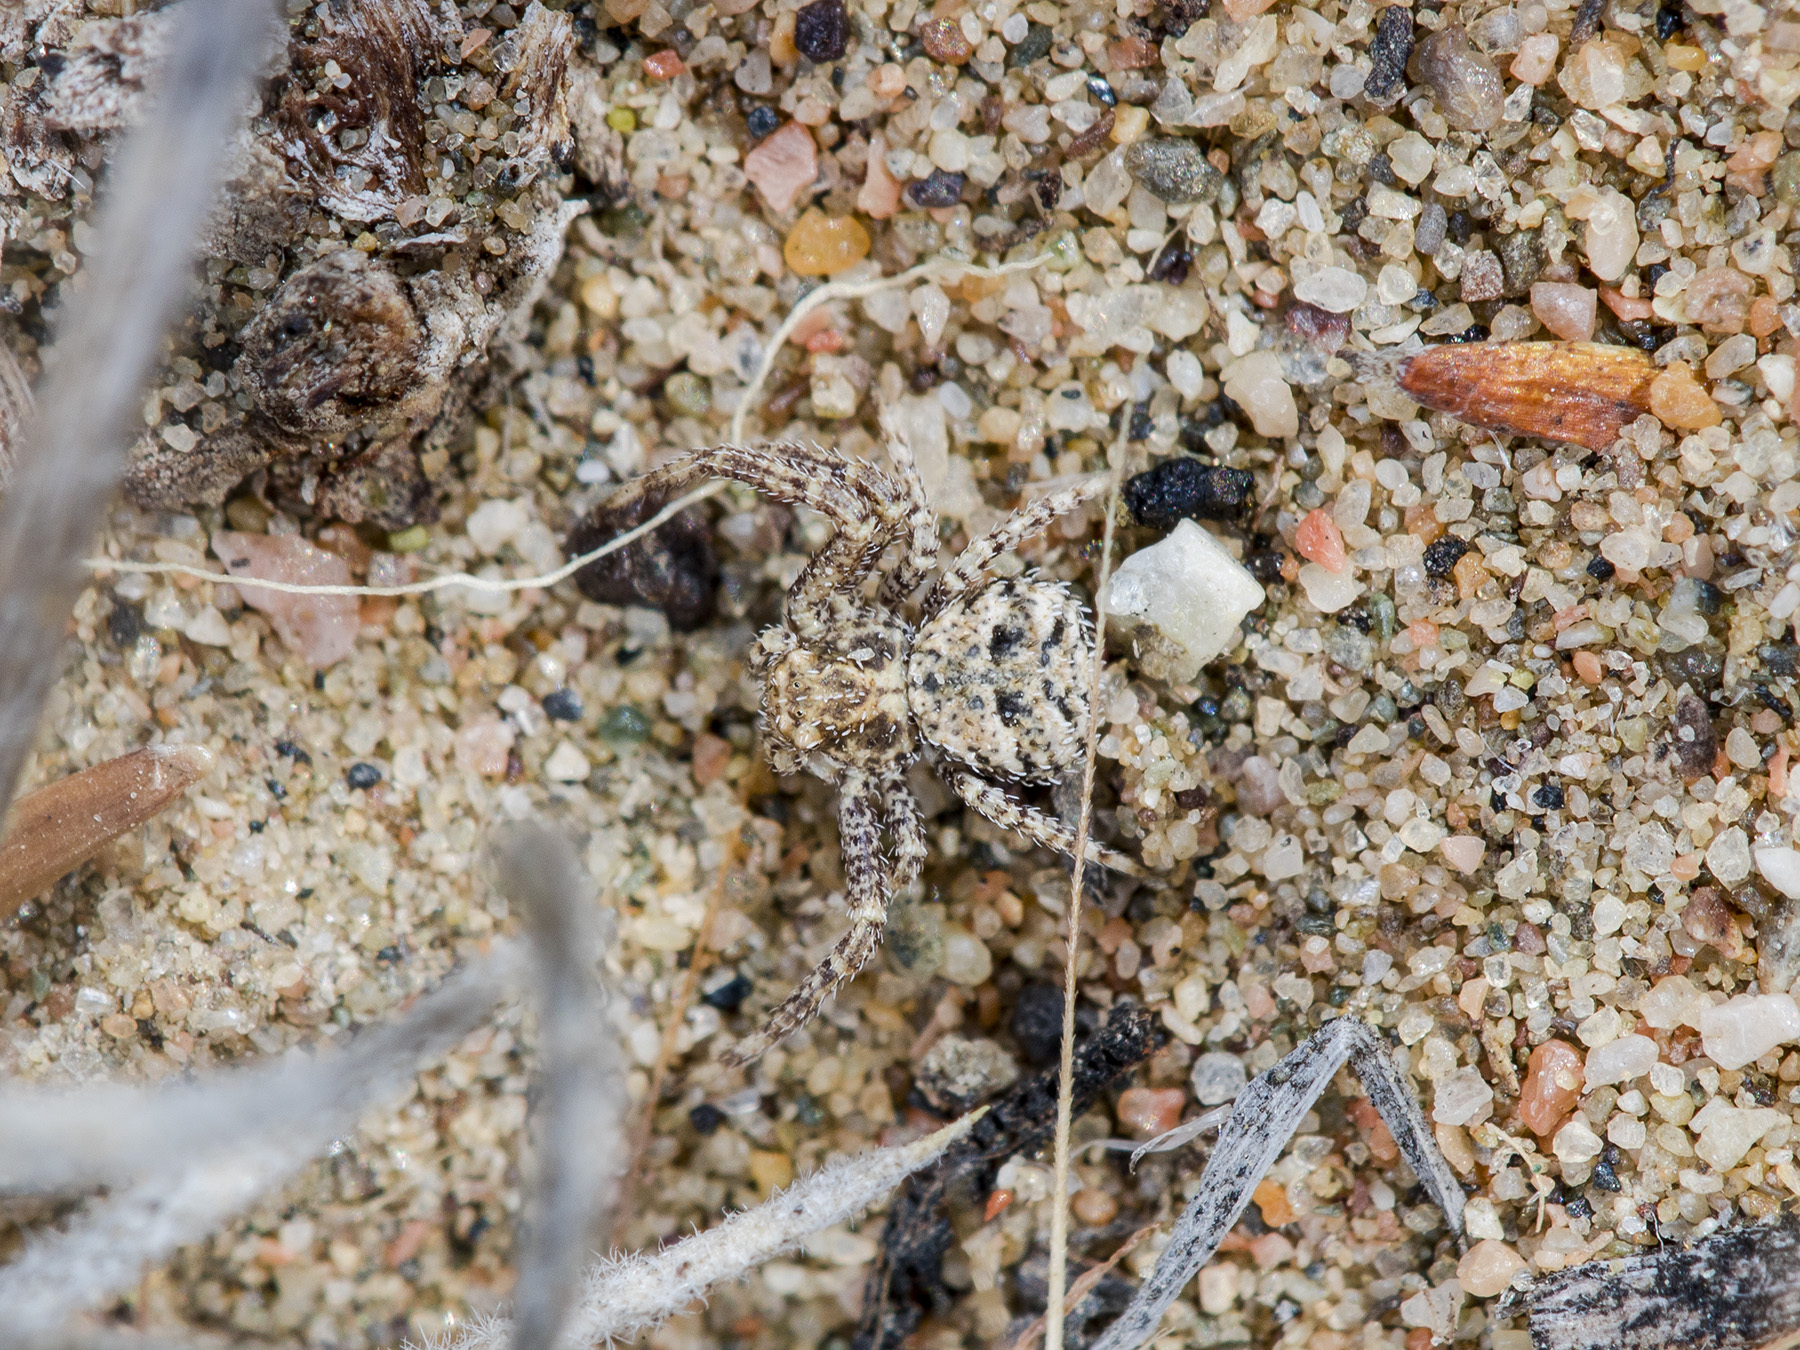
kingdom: Animalia
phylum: Arthropoda
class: Arachnida
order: Araneae
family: Thomisidae
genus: Ozyptila
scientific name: Ozyptila lugubris
